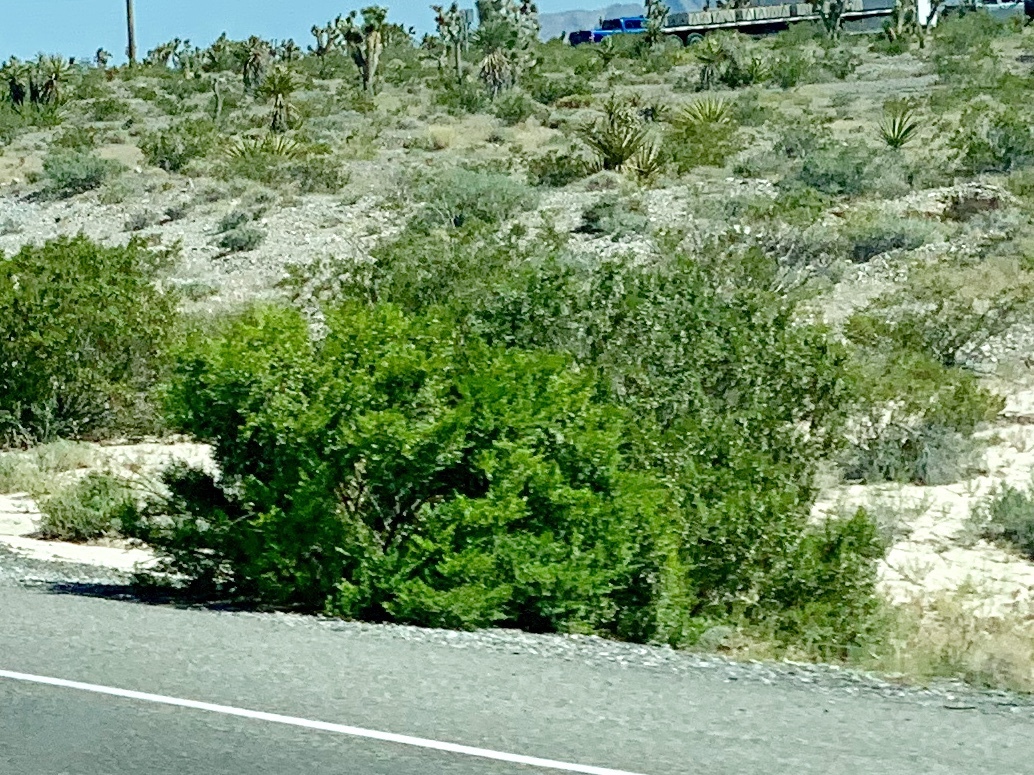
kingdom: Plantae
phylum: Tracheophyta
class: Magnoliopsida
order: Zygophyllales
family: Zygophyllaceae
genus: Larrea
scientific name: Larrea tridentata
